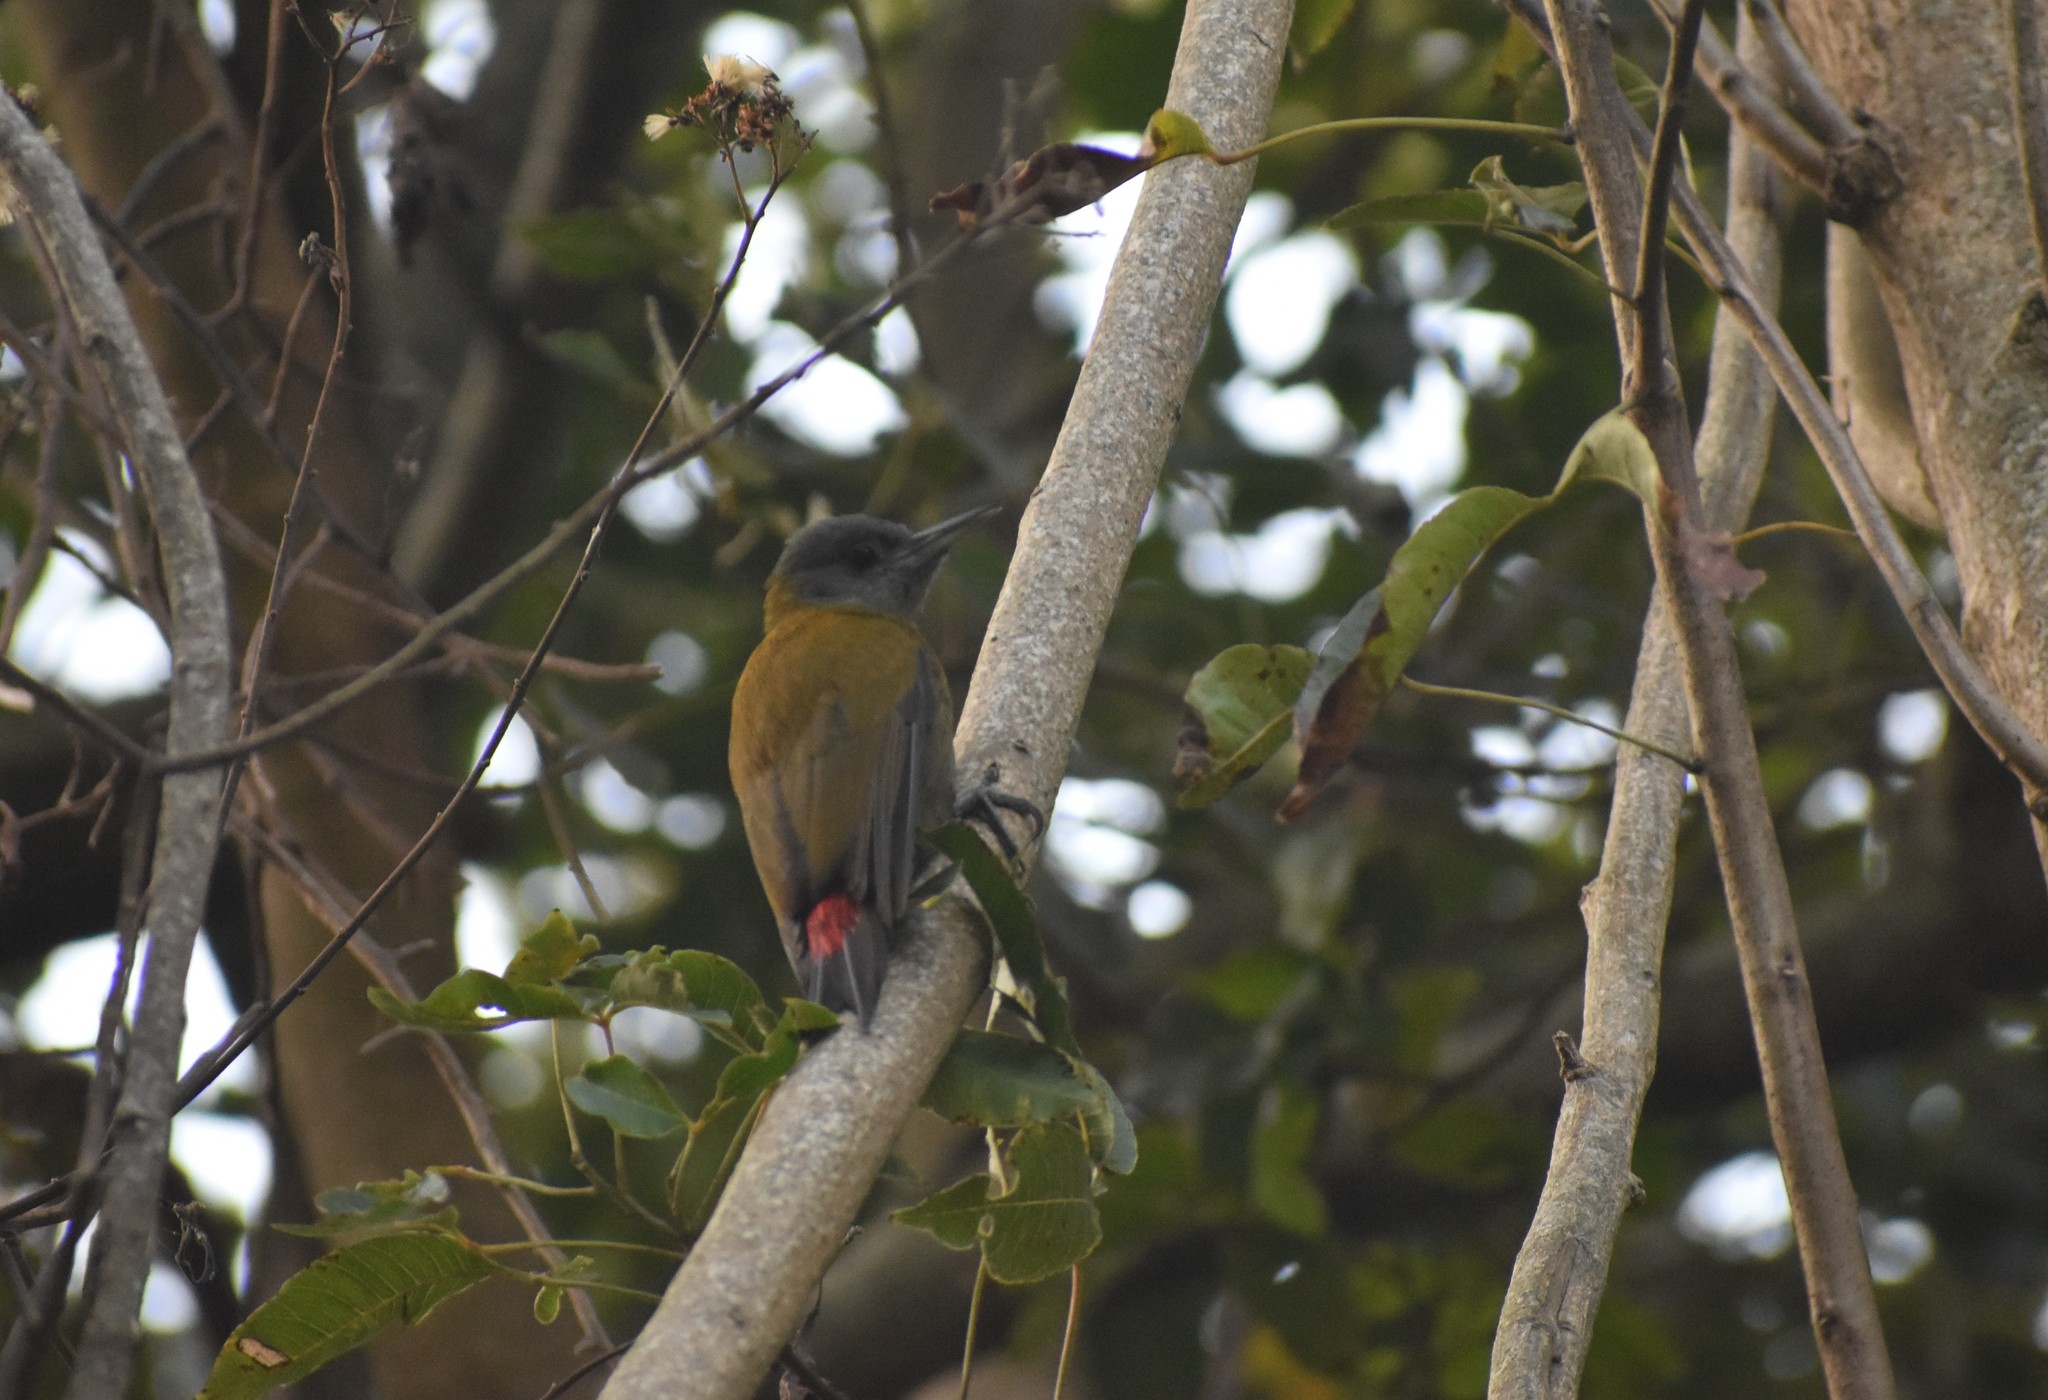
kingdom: Animalia
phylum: Chordata
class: Aves
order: Piciformes
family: Picidae
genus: Dendropicos
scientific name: Dendropicos griseocephalus
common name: Olive woodpecker
